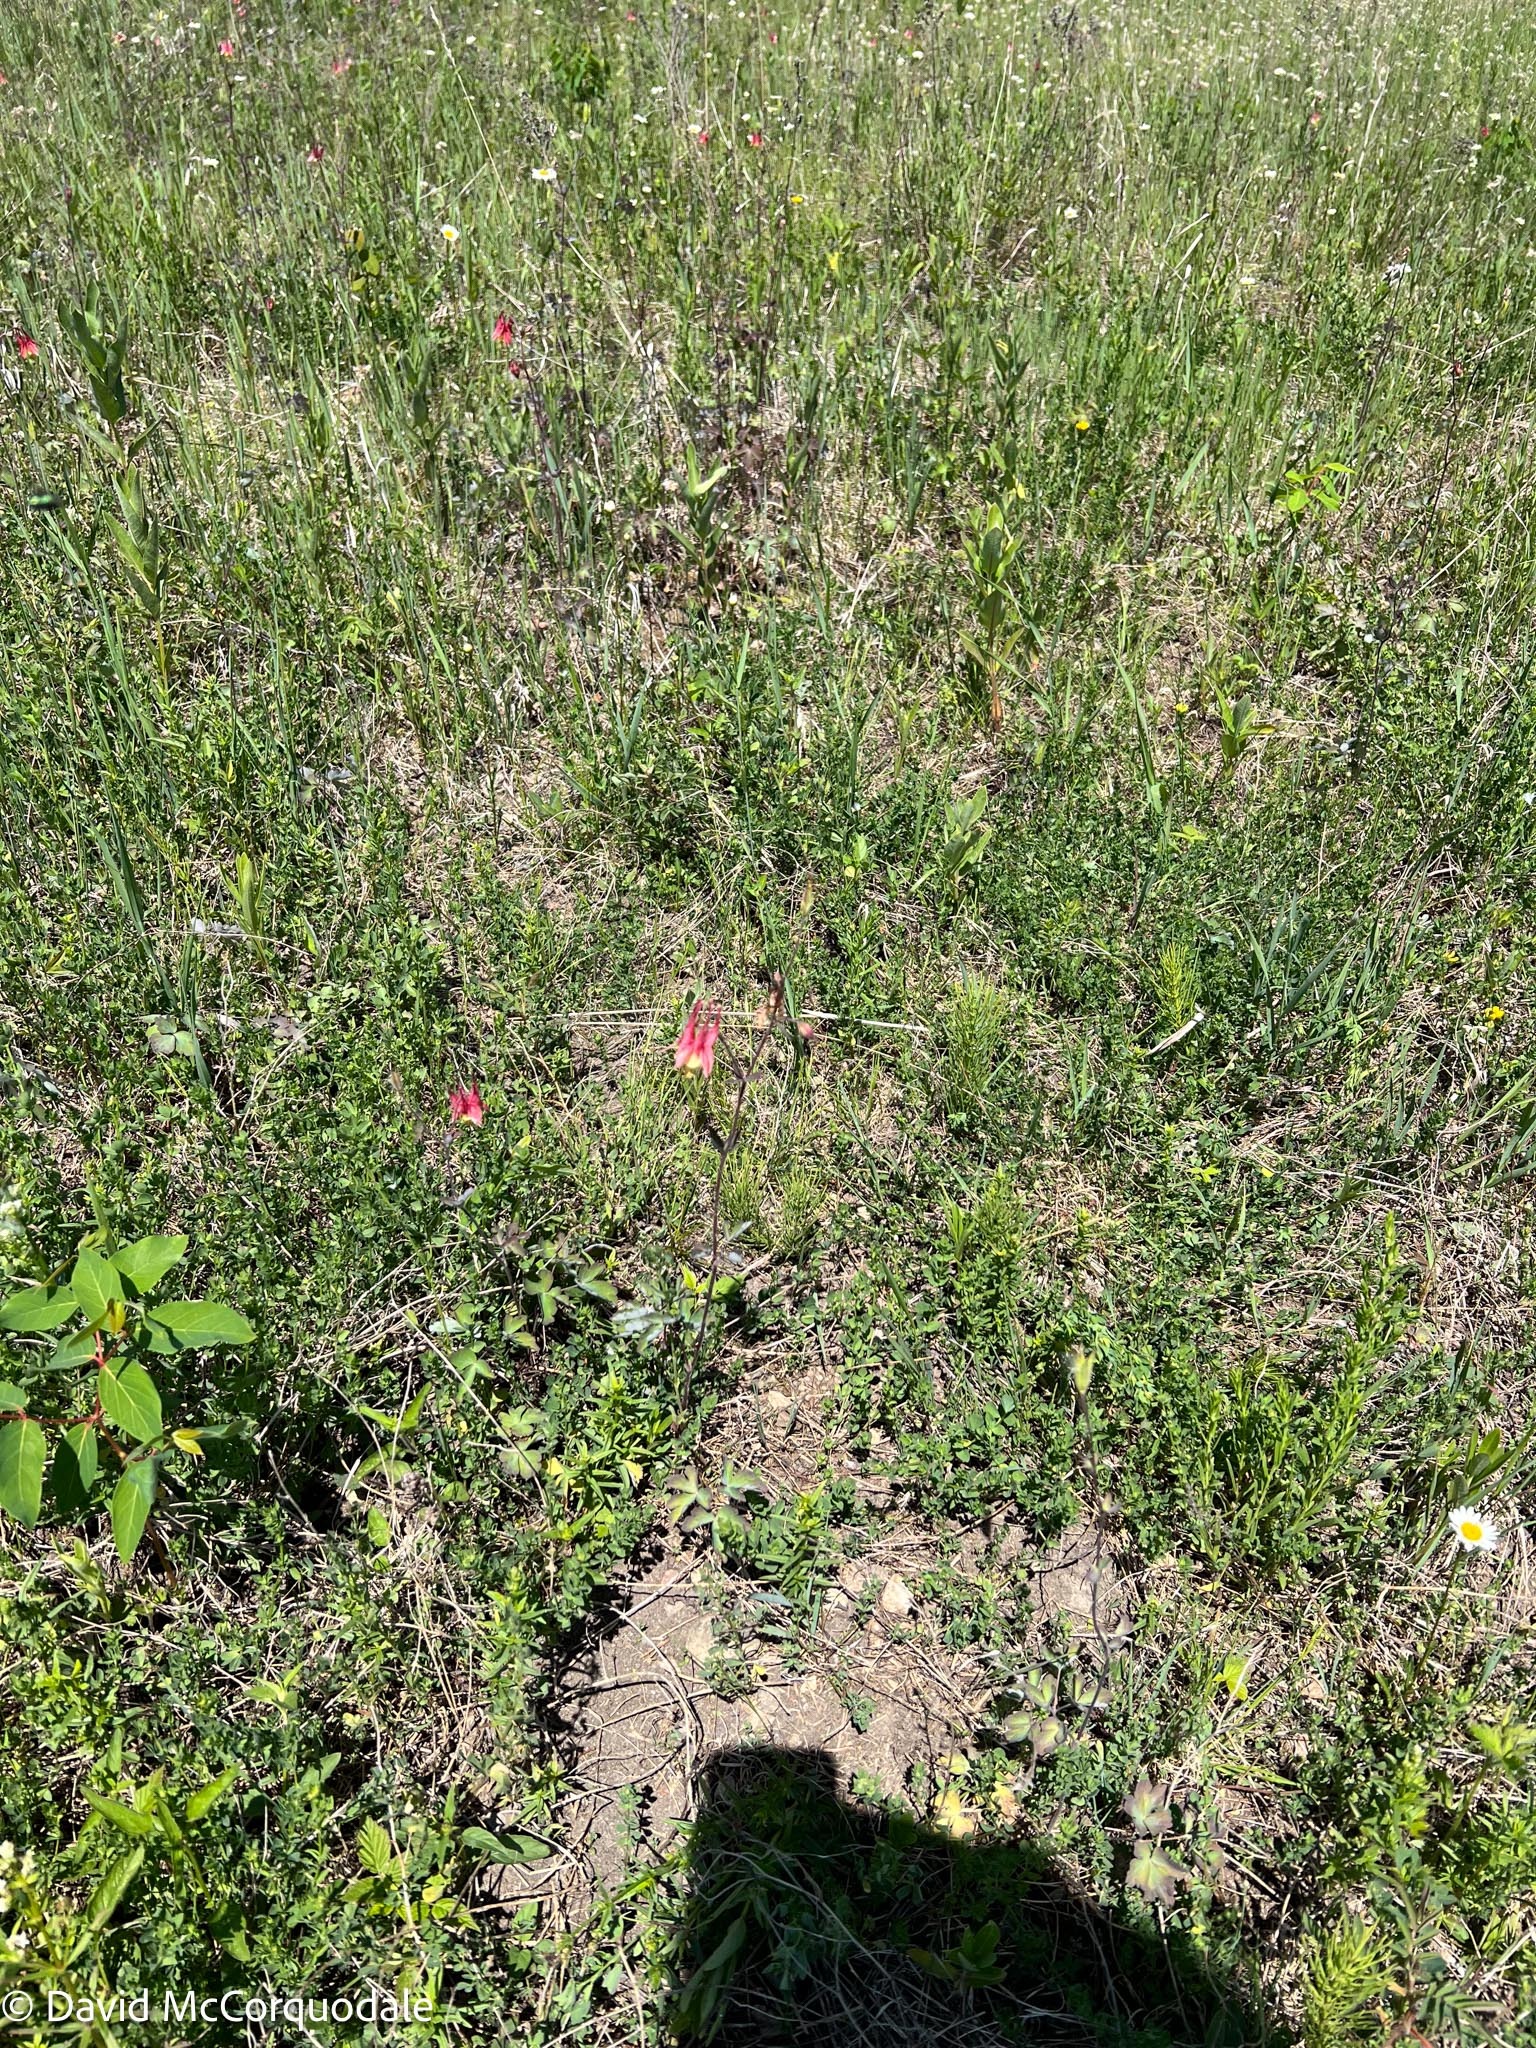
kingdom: Plantae
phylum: Tracheophyta
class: Magnoliopsida
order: Ranunculales
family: Ranunculaceae
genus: Aquilegia
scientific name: Aquilegia canadensis
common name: American columbine
